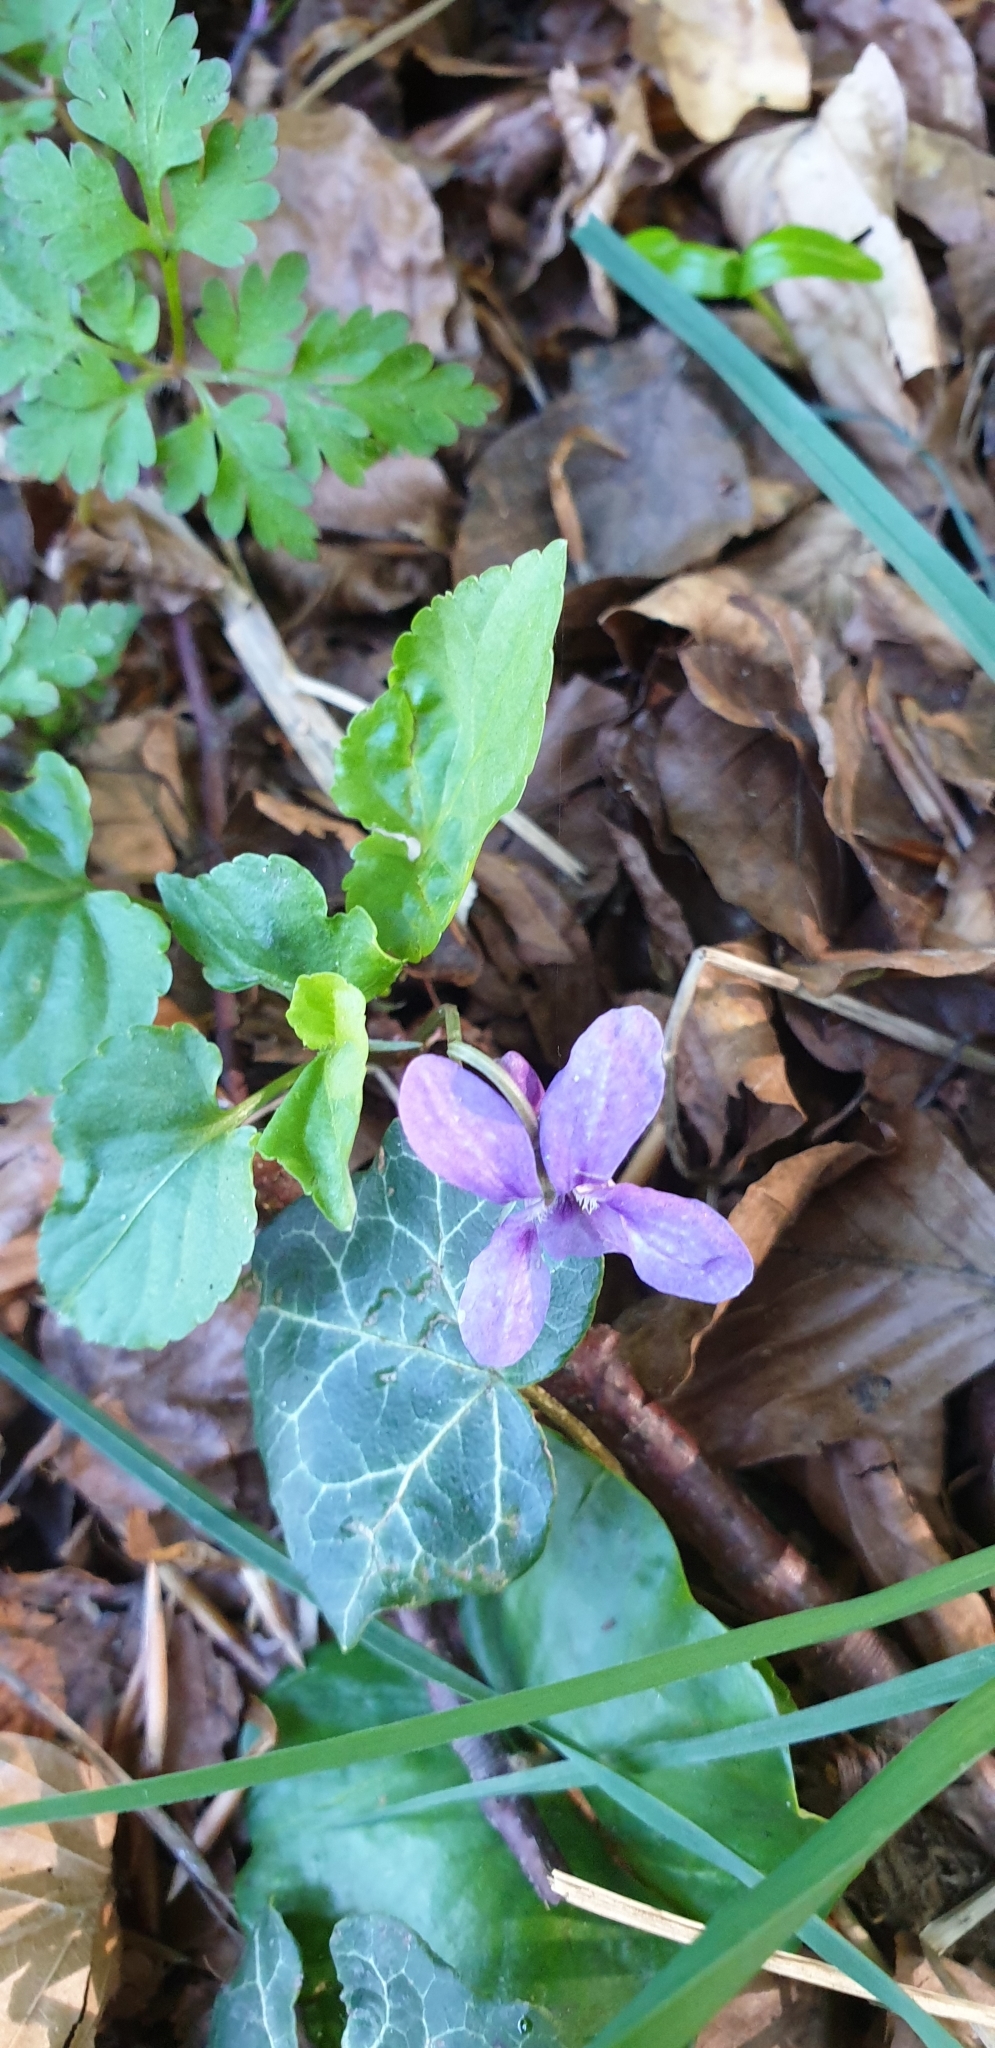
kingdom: Plantae
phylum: Tracheophyta
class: Magnoliopsida
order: Malpighiales
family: Violaceae
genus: Viola
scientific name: Viola reichenbachiana
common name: Early dog-violet
